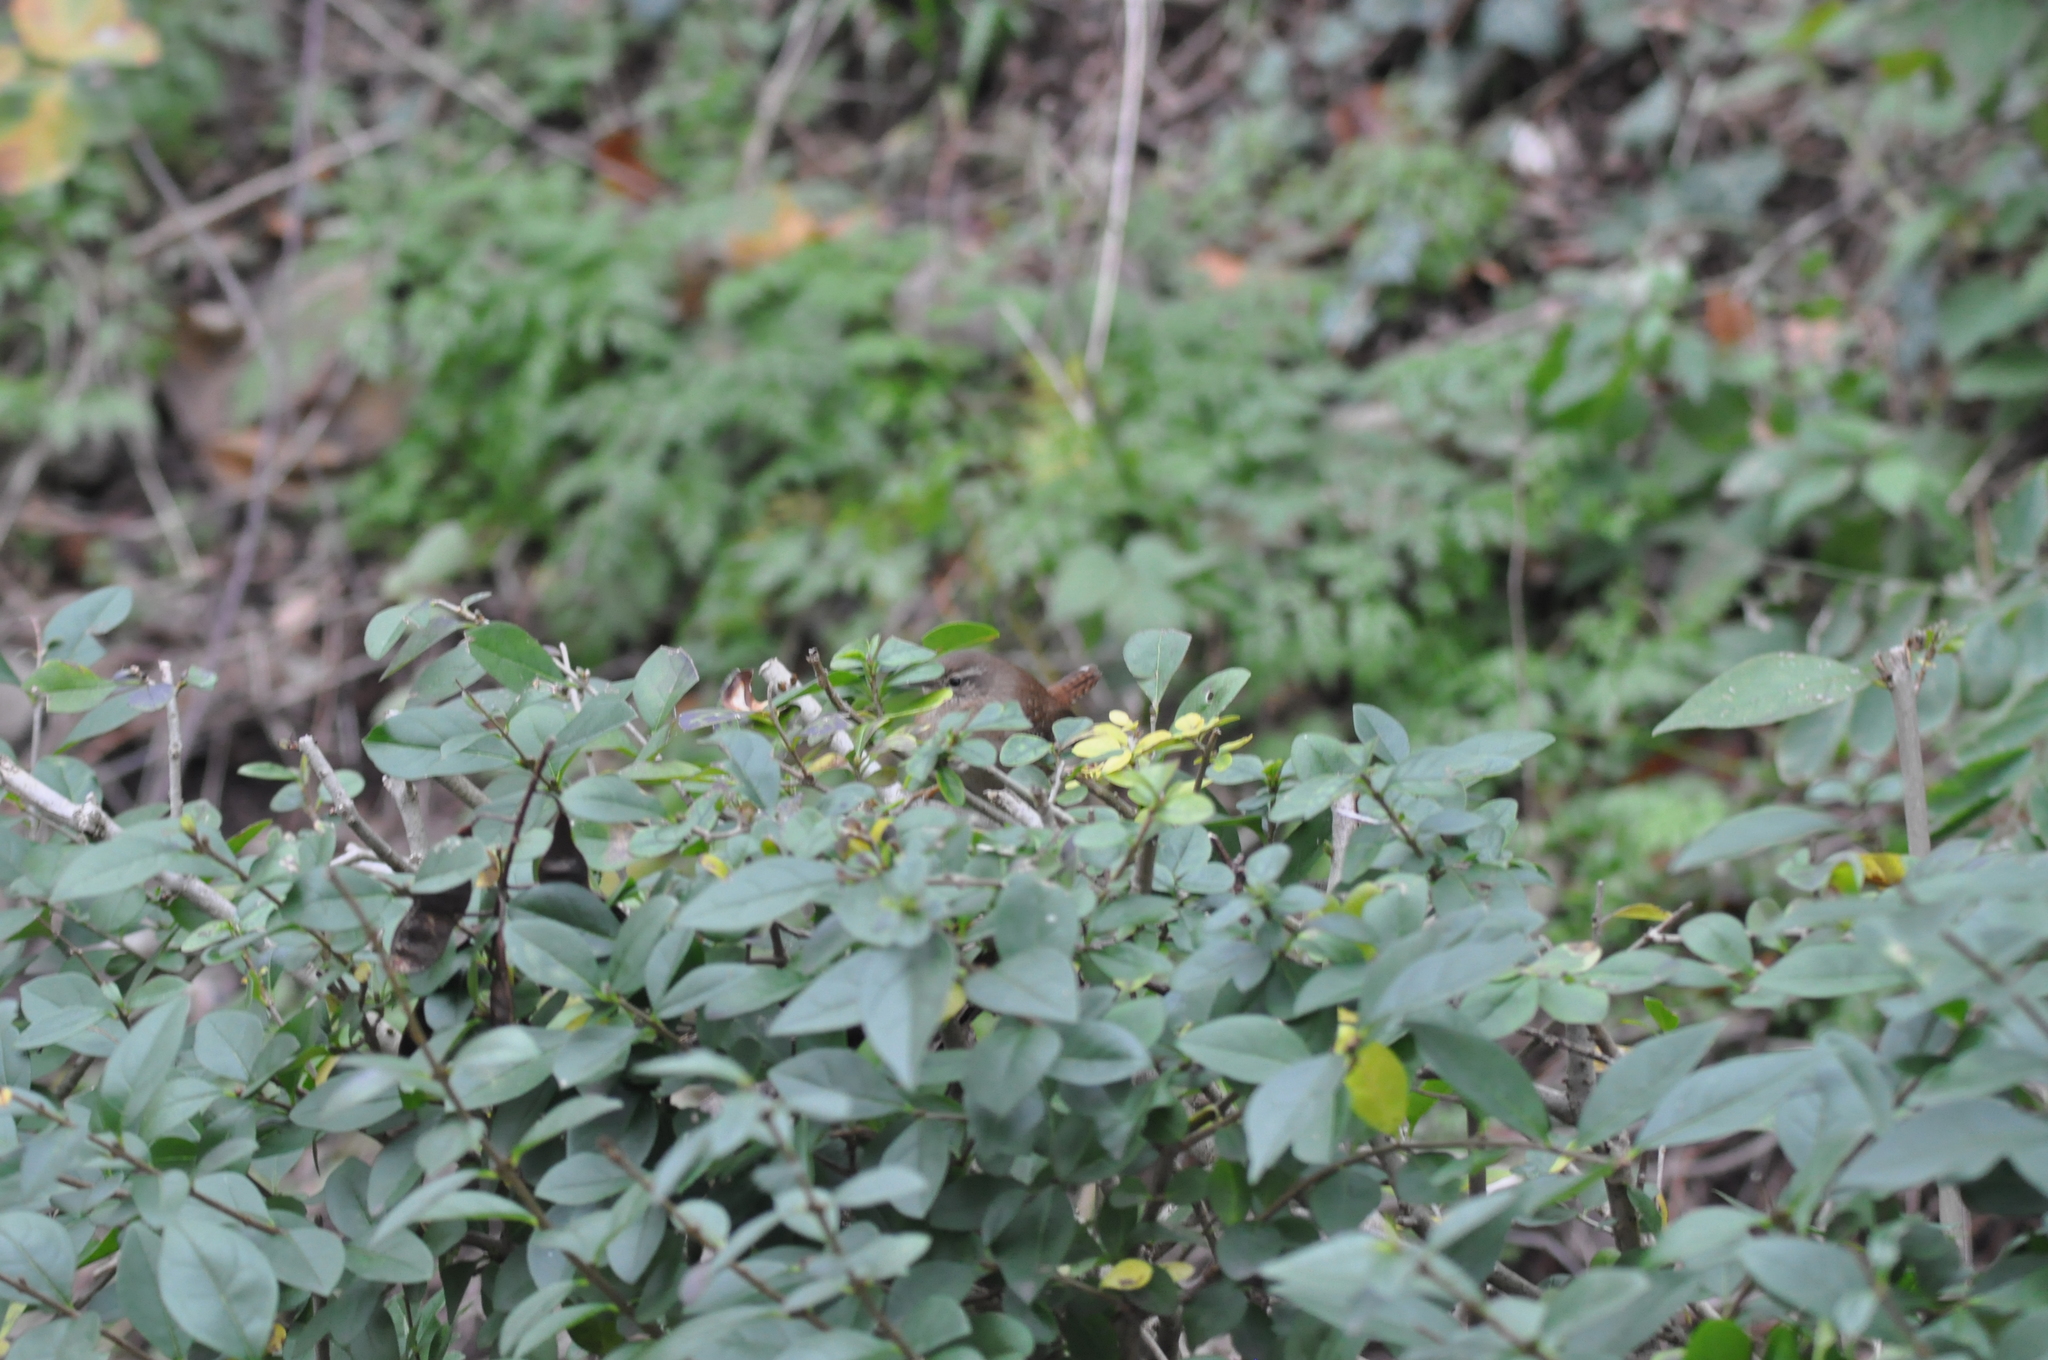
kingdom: Animalia
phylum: Chordata
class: Aves
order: Passeriformes
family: Troglodytidae
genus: Troglodytes
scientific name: Troglodytes troglodytes
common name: Eurasian wren
